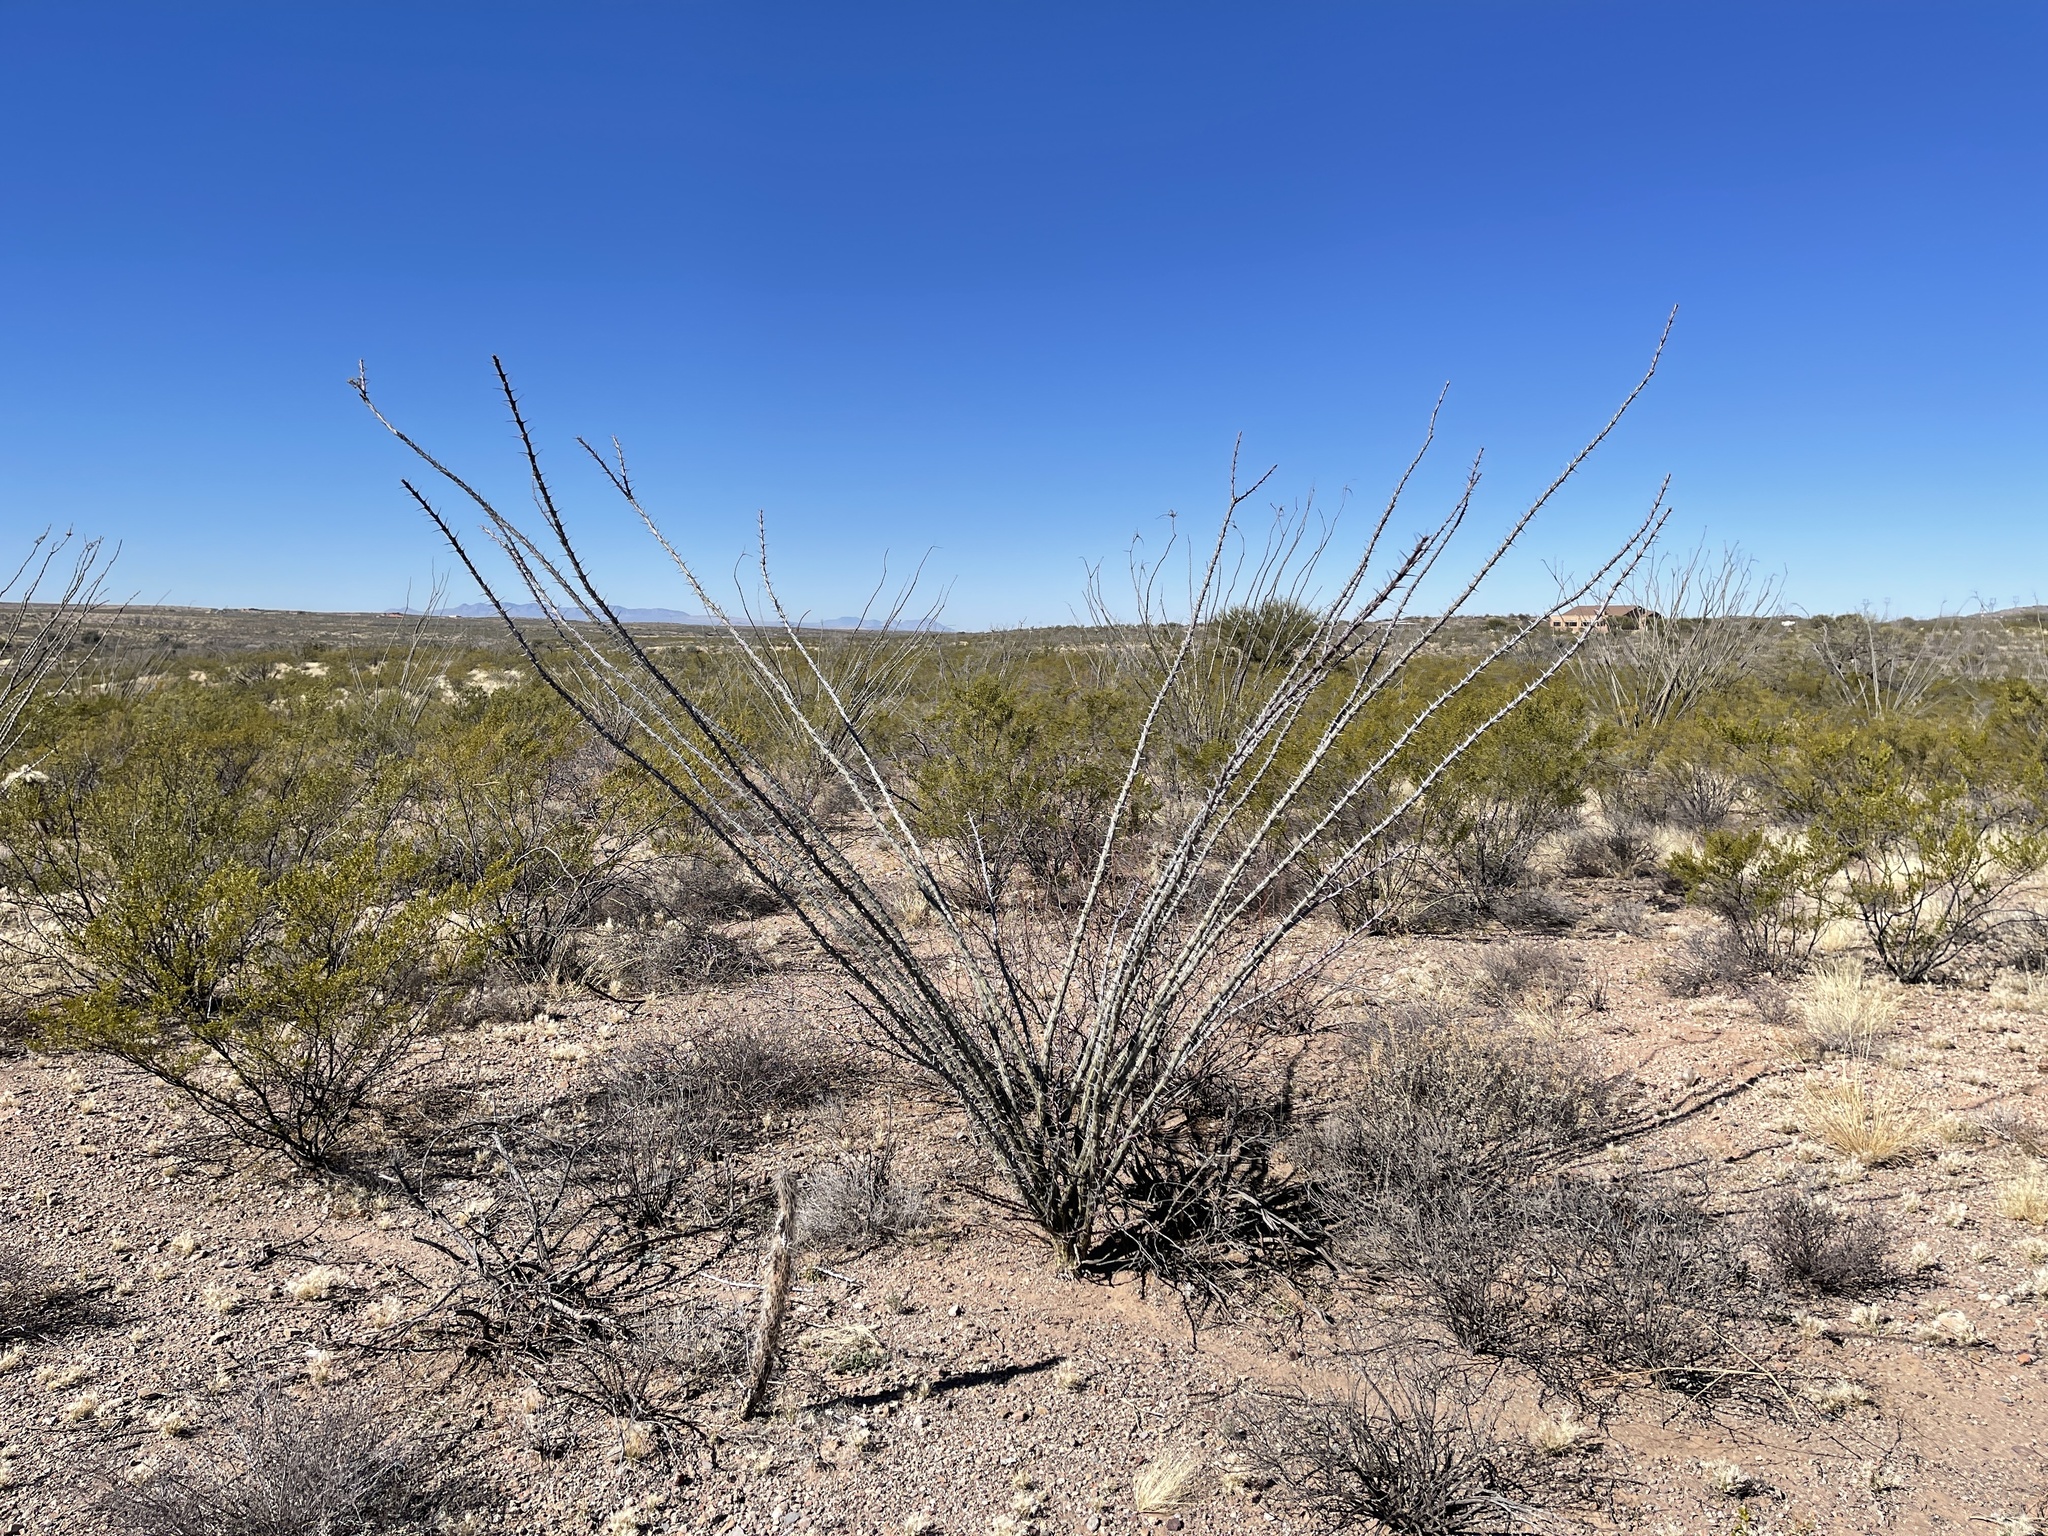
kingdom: Plantae
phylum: Tracheophyta
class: Magnoliopsida
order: Ericales
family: Fouquieriaceae
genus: Fouquieria
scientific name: Fouquieria splendens
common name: Vine-cactus
